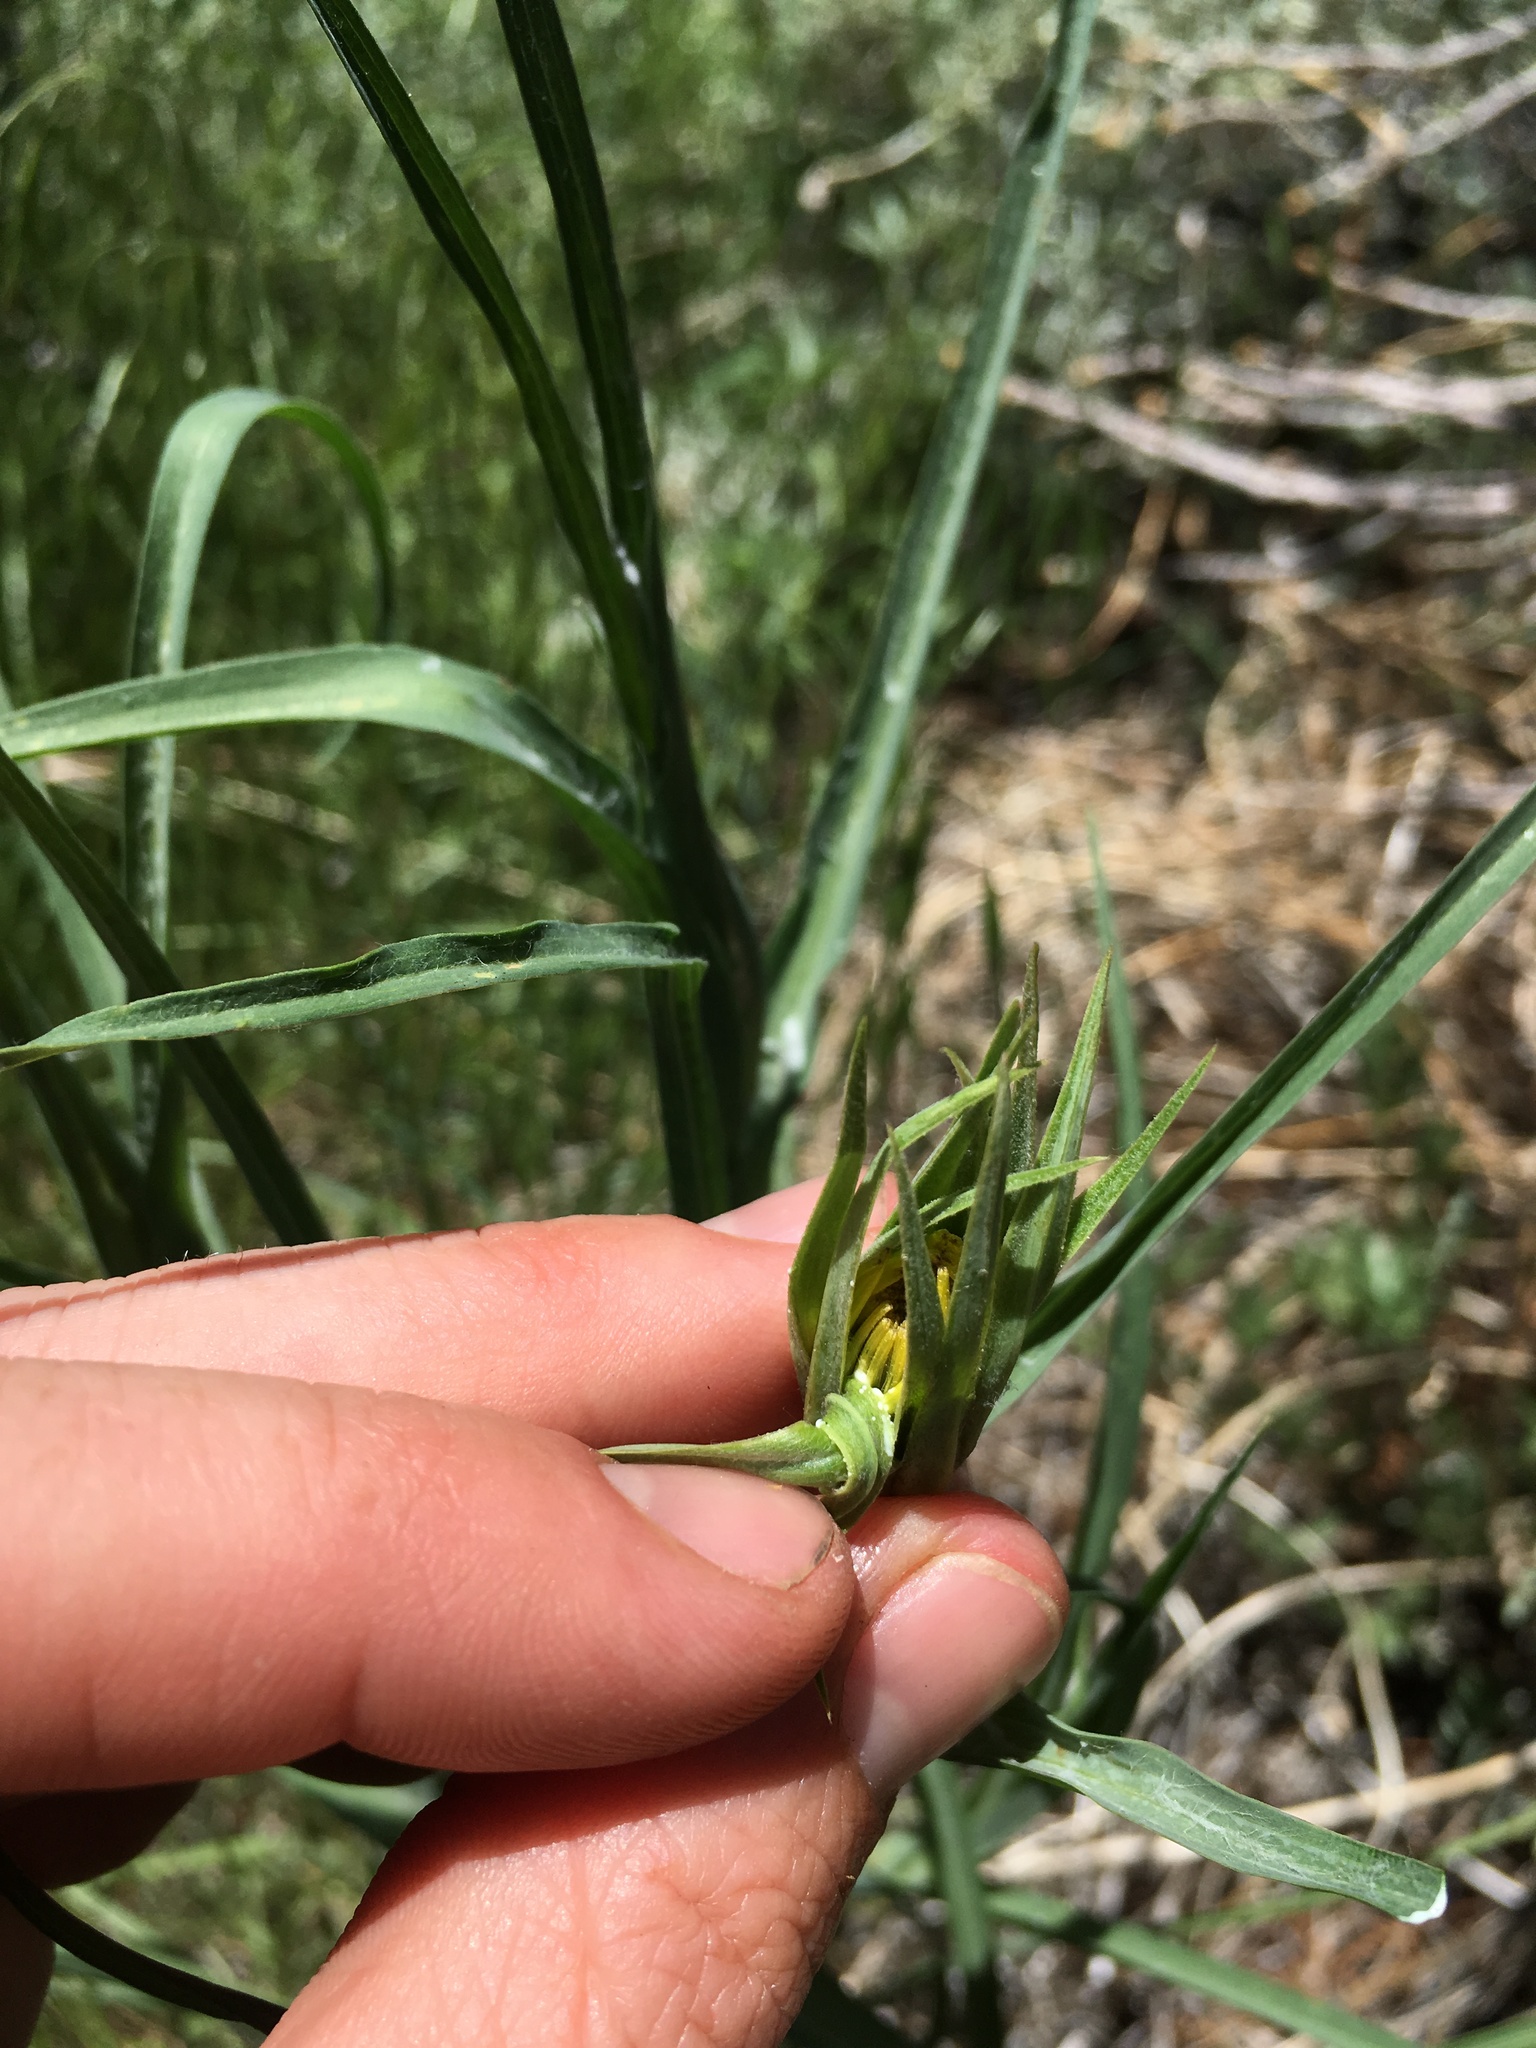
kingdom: Plantae
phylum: Tracheophyta
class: Magnoliopsida
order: Asterales
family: Asteraceae
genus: Tragopogon
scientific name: Tragopogon dubius
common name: Yellow salsify
